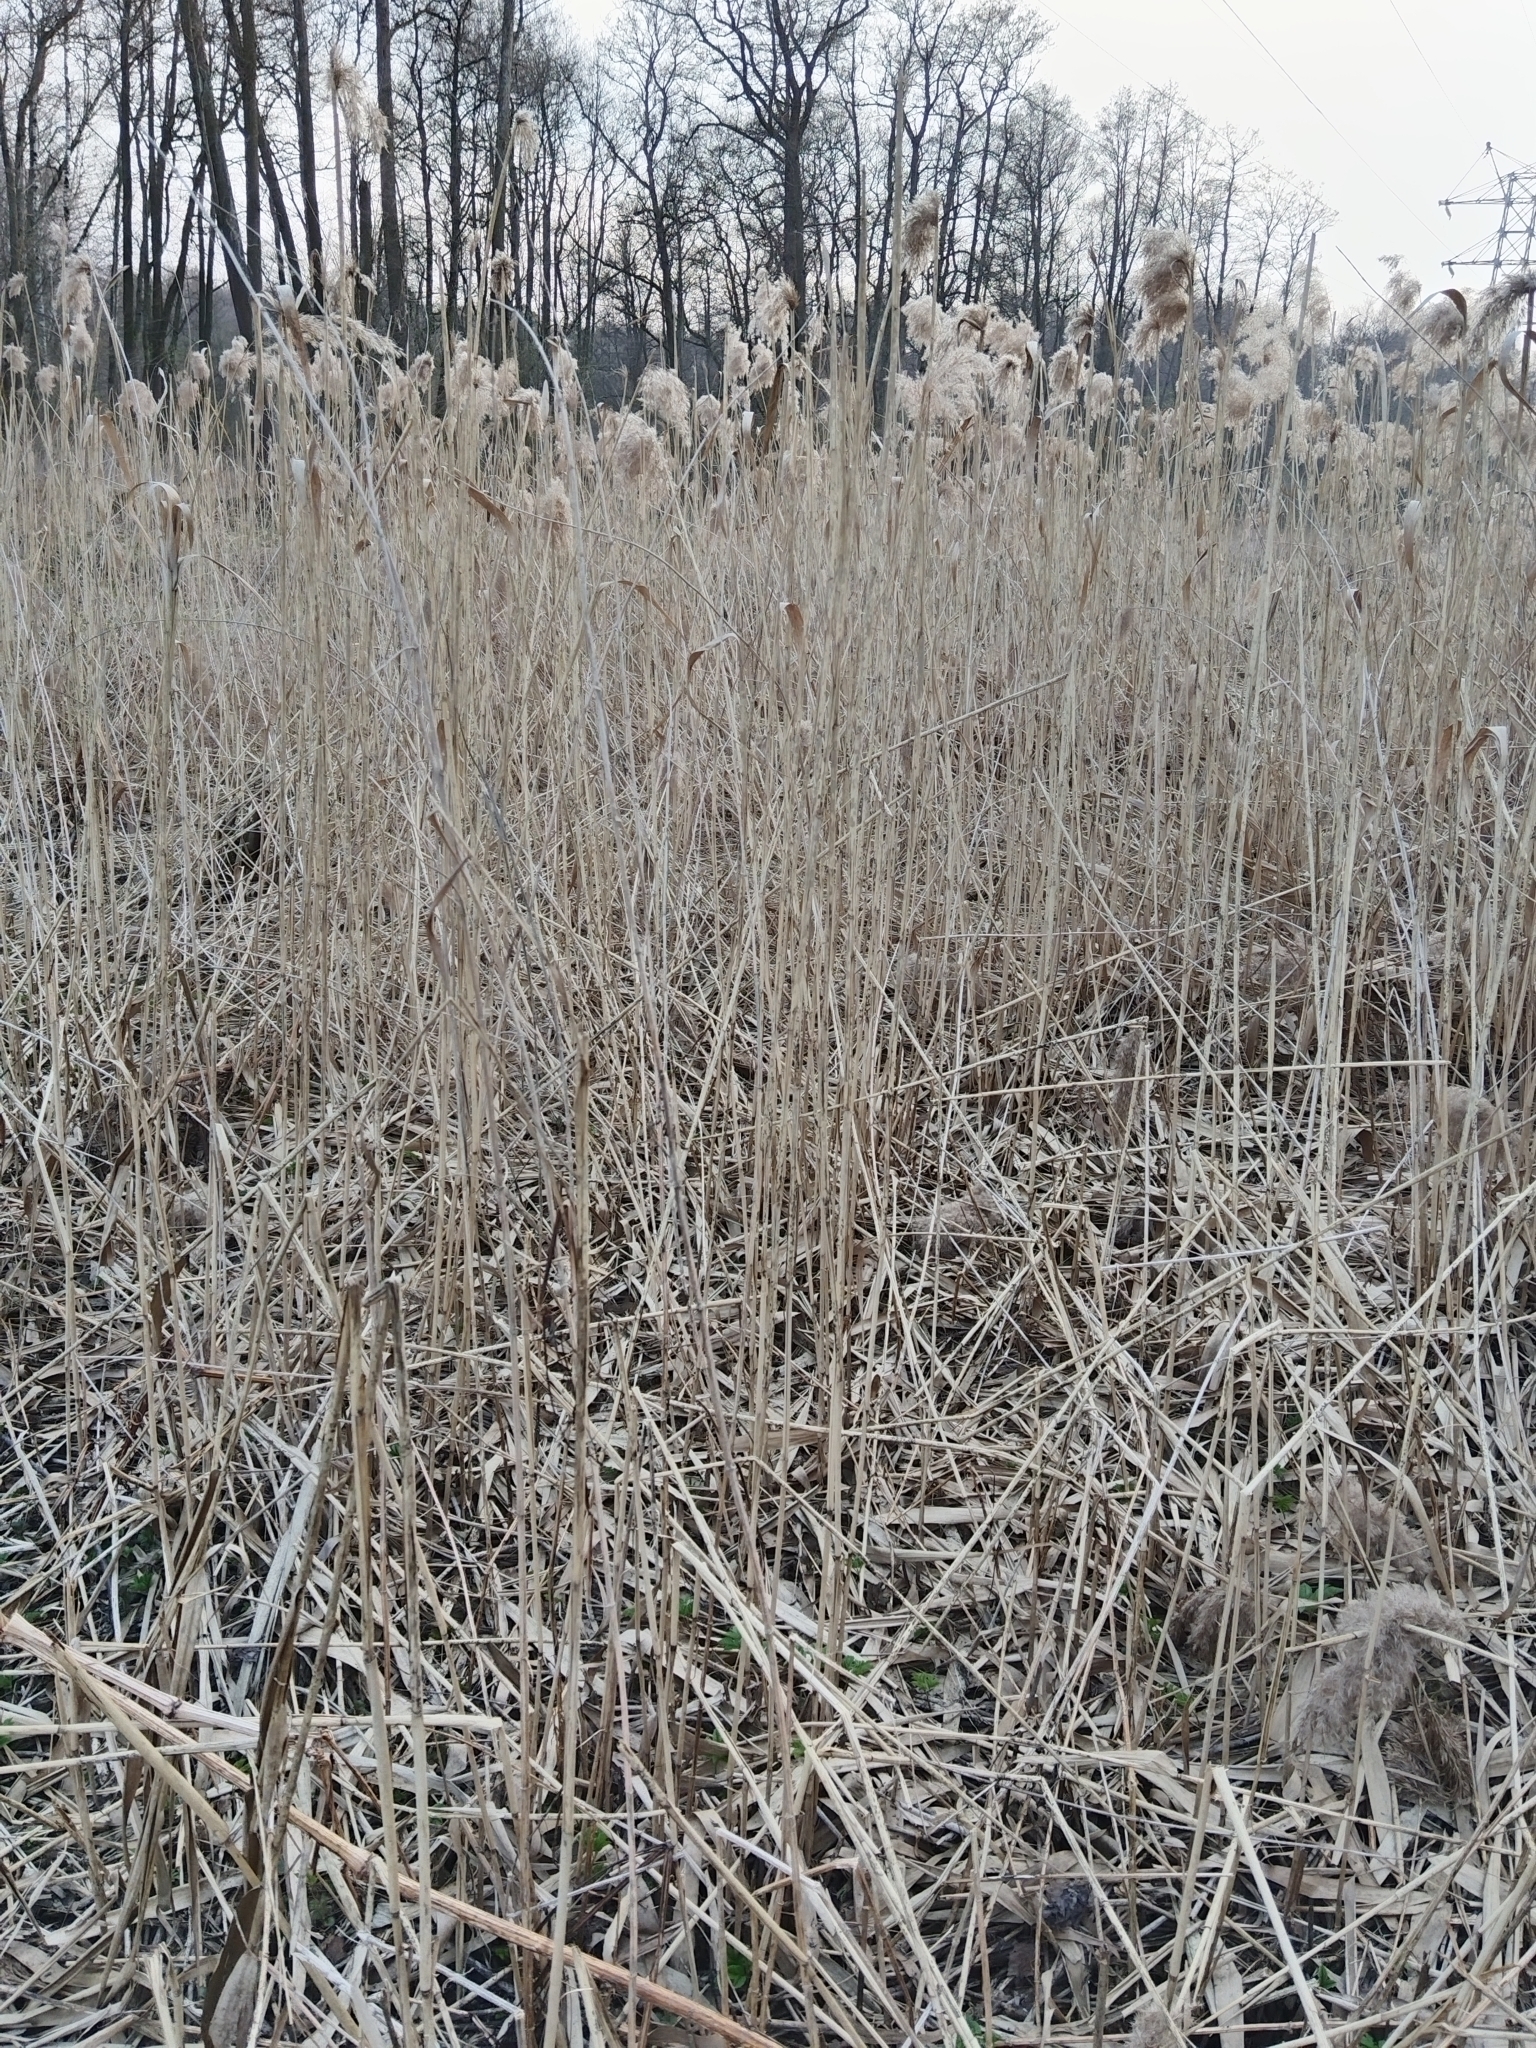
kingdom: Plantae
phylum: Tracheophyta
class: Liliopsida
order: Poales
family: Poaceae
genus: Phragmites
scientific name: Phragmites australis
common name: Common reed
